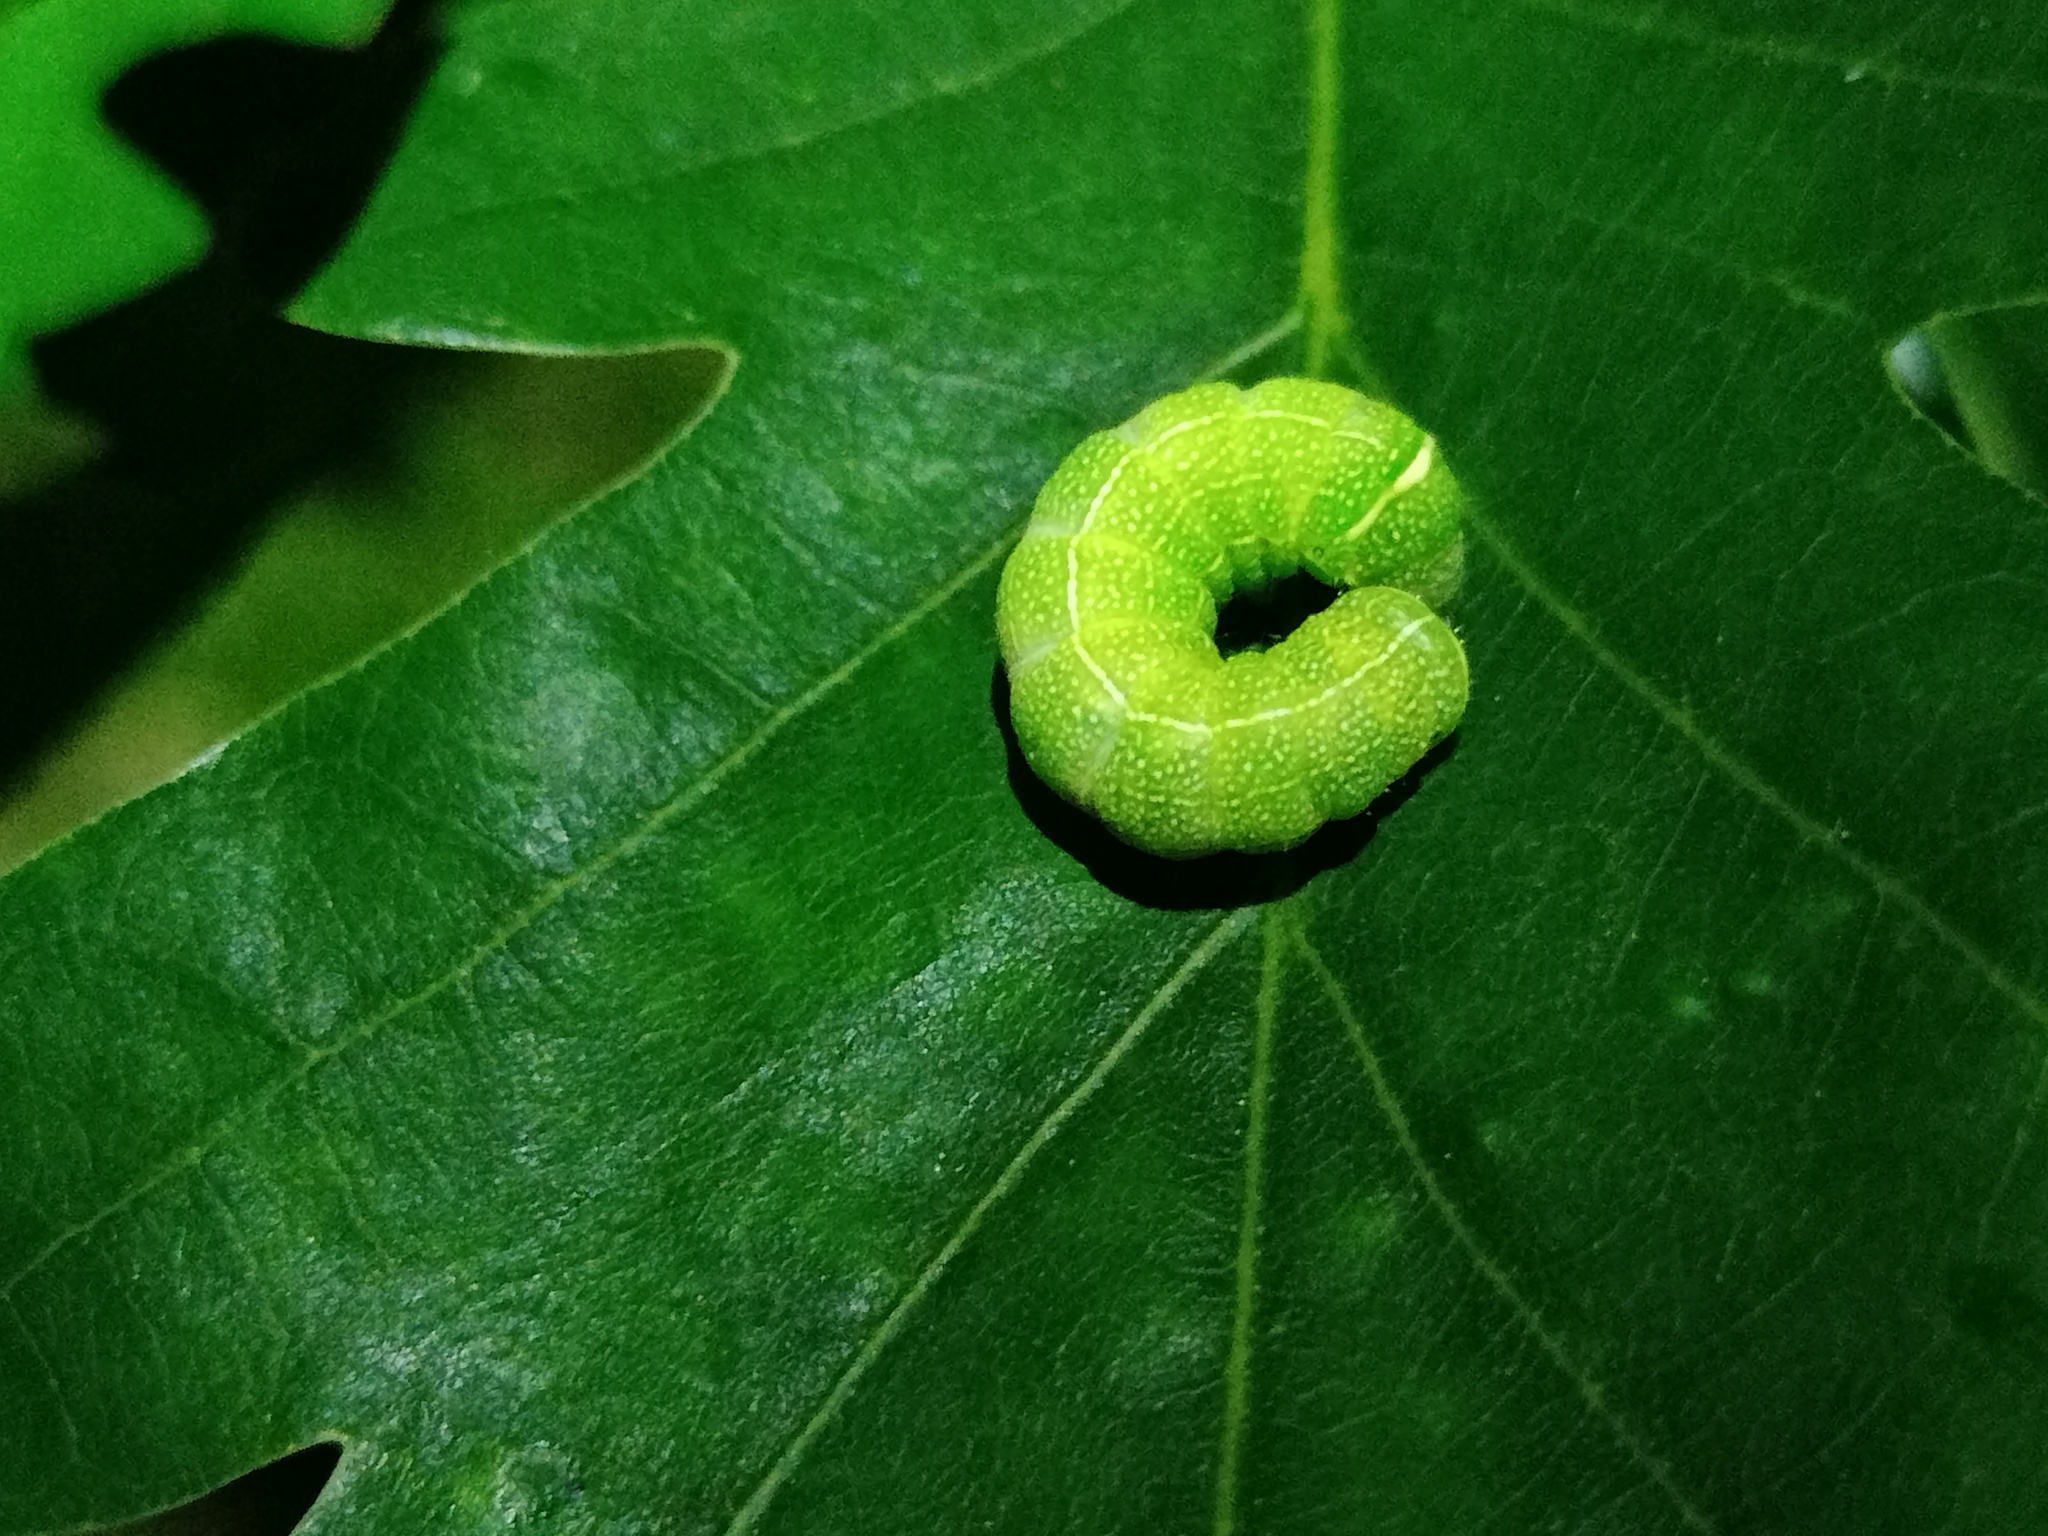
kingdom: Animalia
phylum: Arthropoda
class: Insecta
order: Lepidoptera
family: Noctuidae
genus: Orthosia
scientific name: Orthosia cerasi
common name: Common quaker
